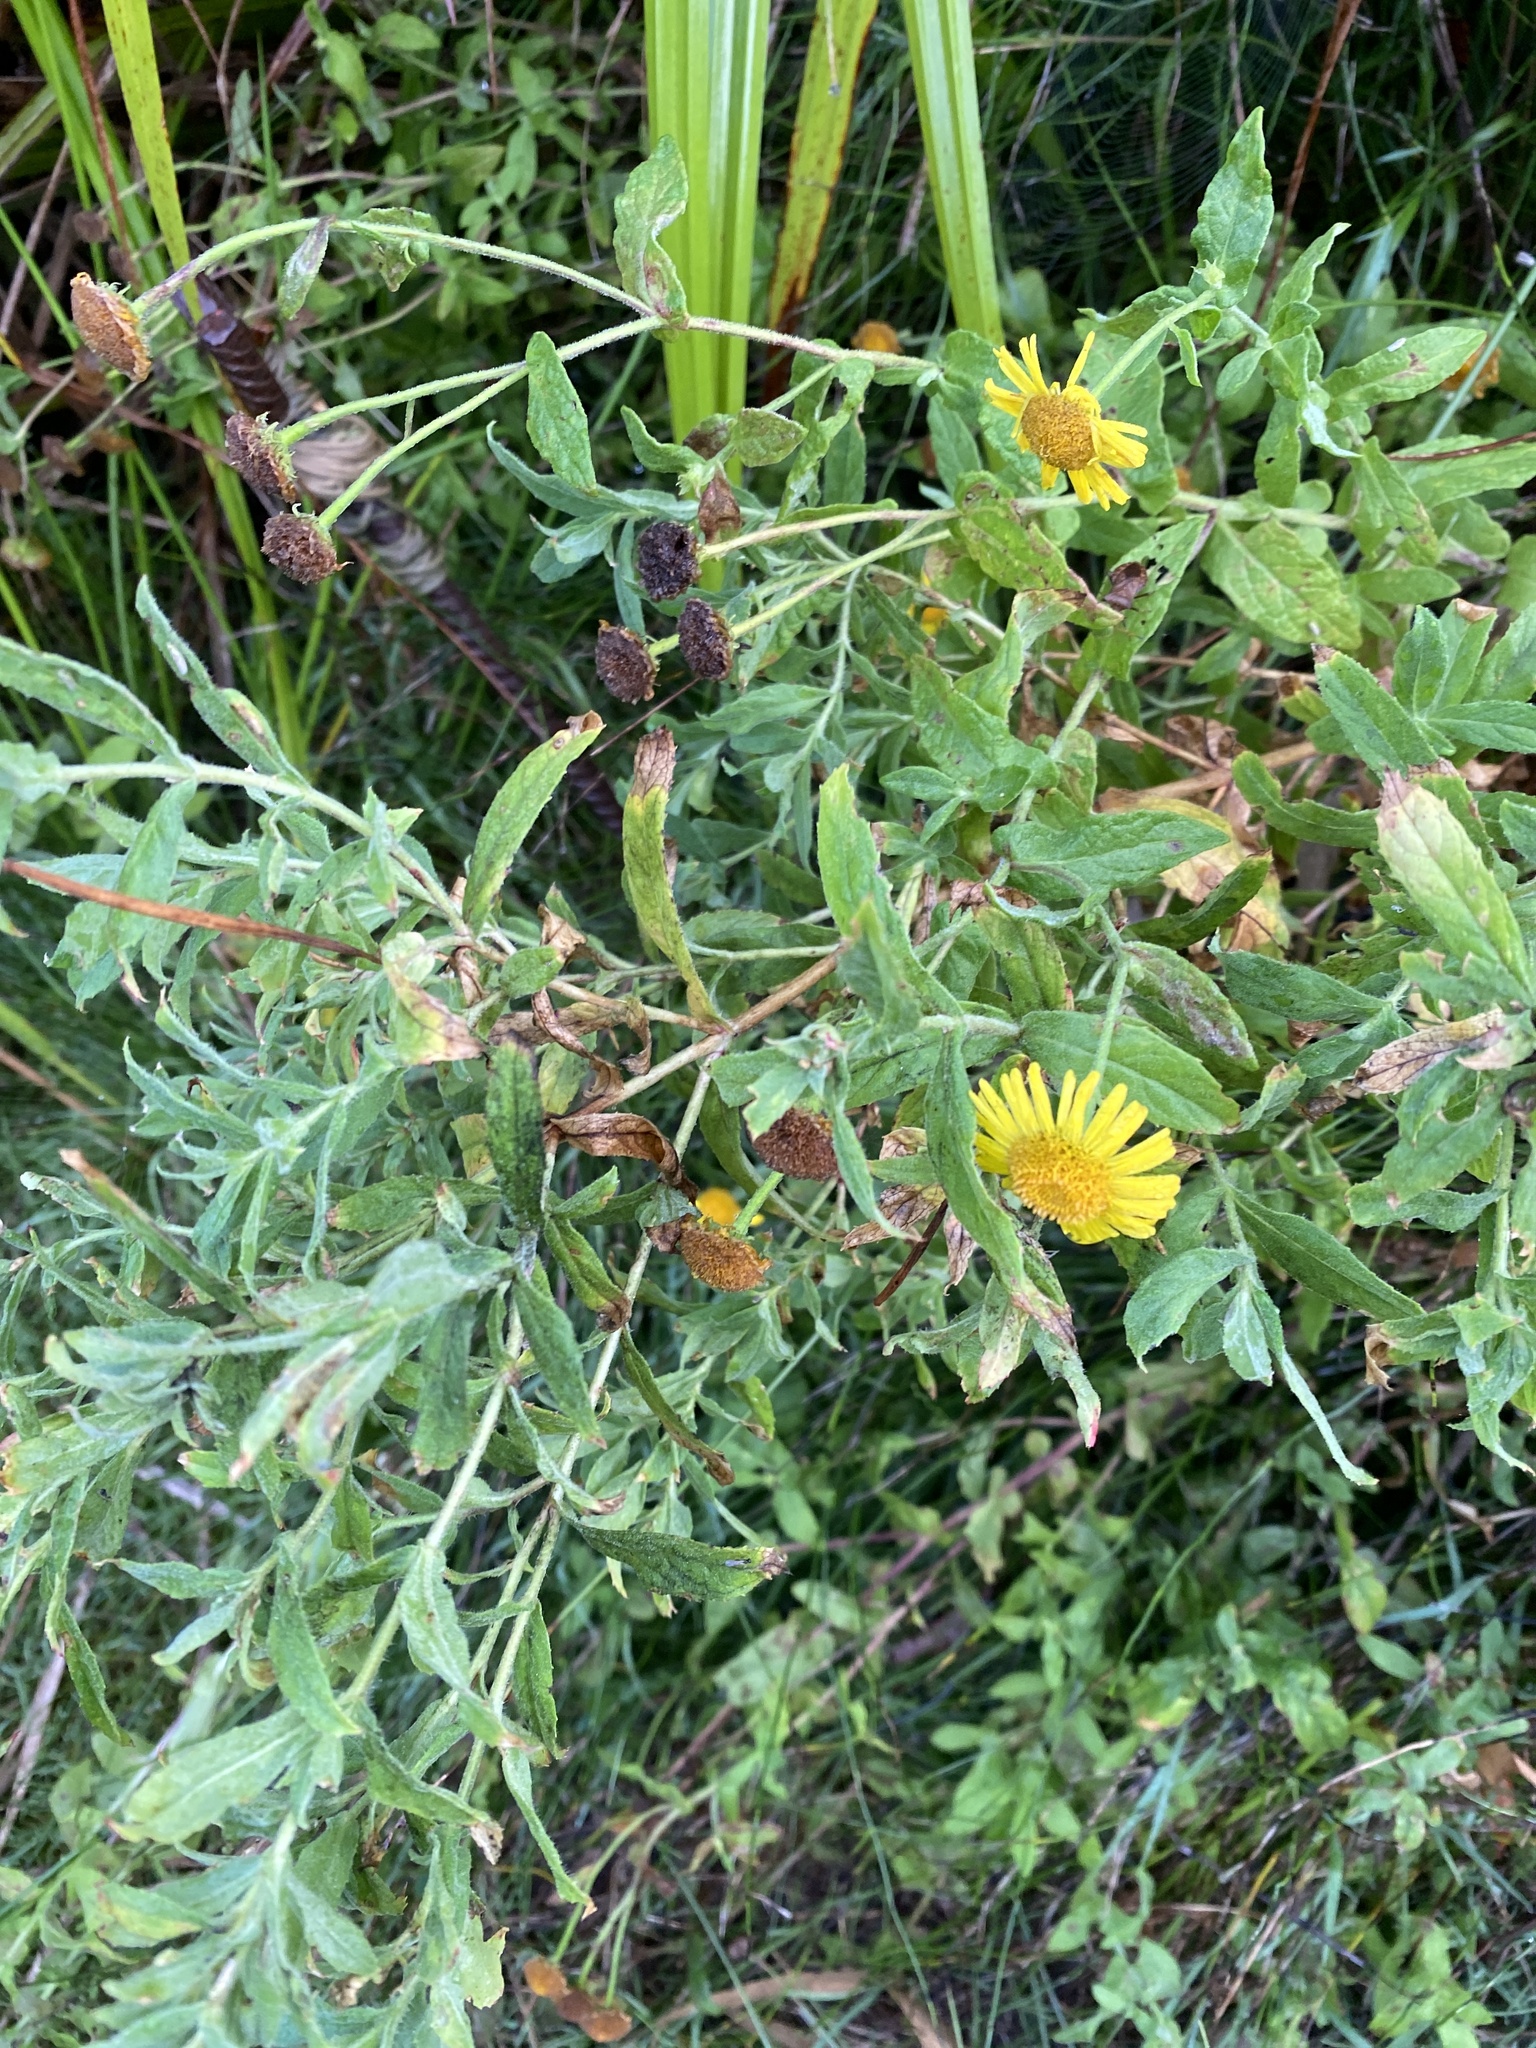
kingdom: Plantae
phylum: Tracheophyta
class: Magnoliopsida
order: Asterales
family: Asteraceae
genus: Pulicaria
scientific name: Pulicaria dysenterica
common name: Common fleabane
